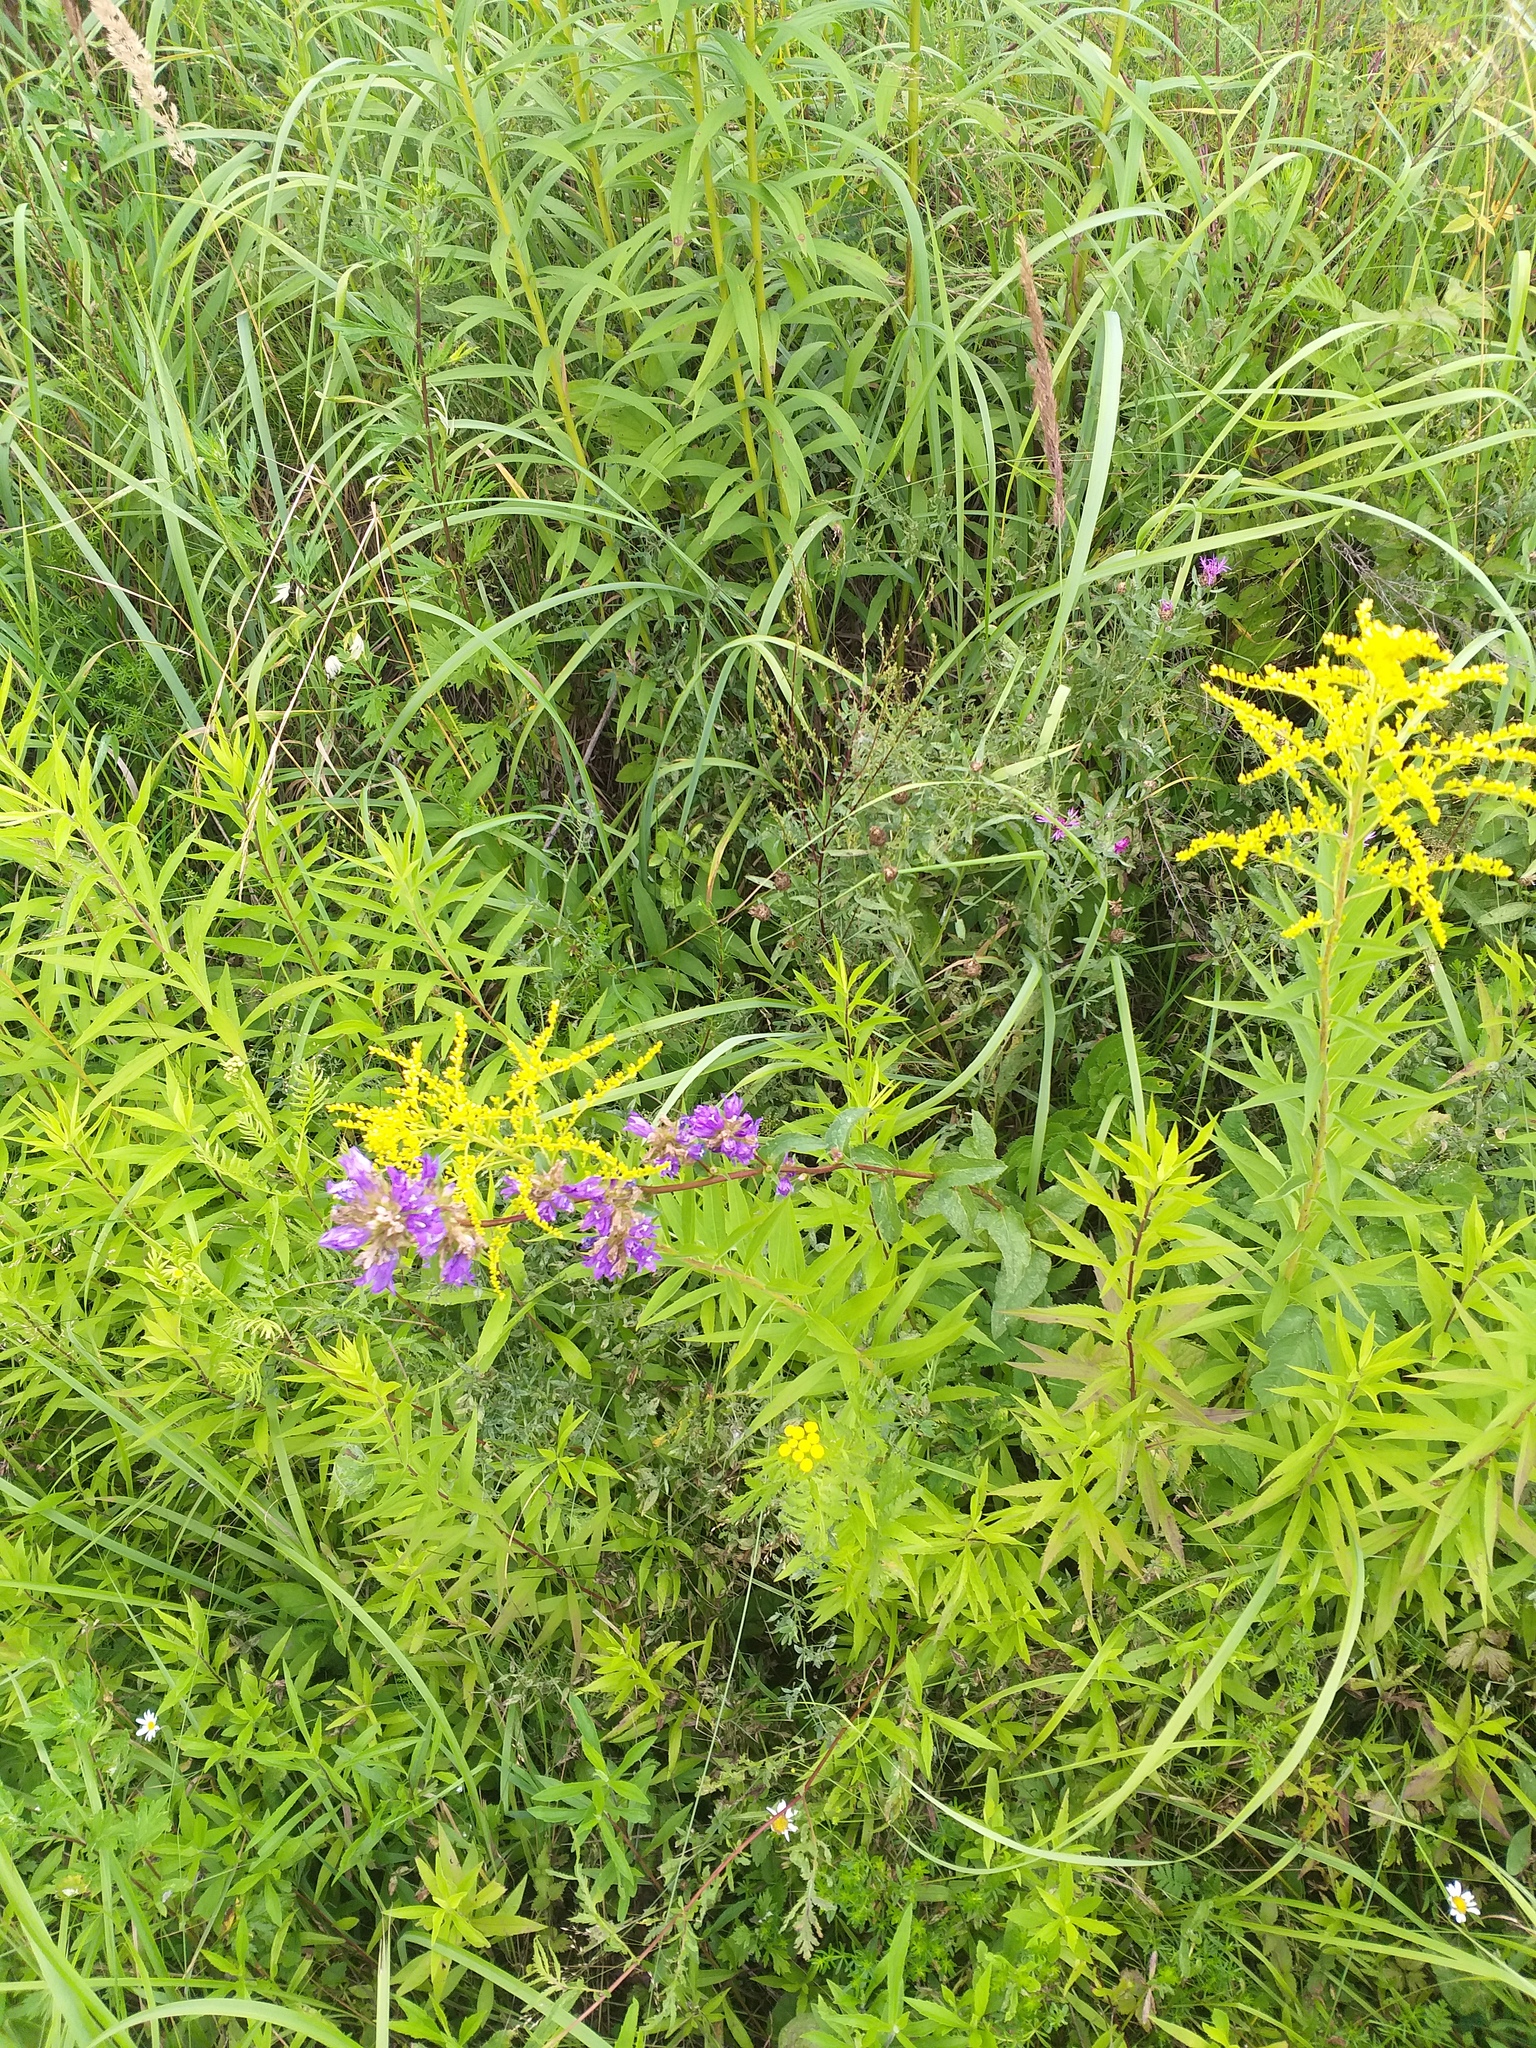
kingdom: Plantae
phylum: Tracheophyta
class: Magnoliopsida
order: Asterales
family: Campanulaceae
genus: Campanula
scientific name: Campanula glomerata
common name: Clustered bellflower
